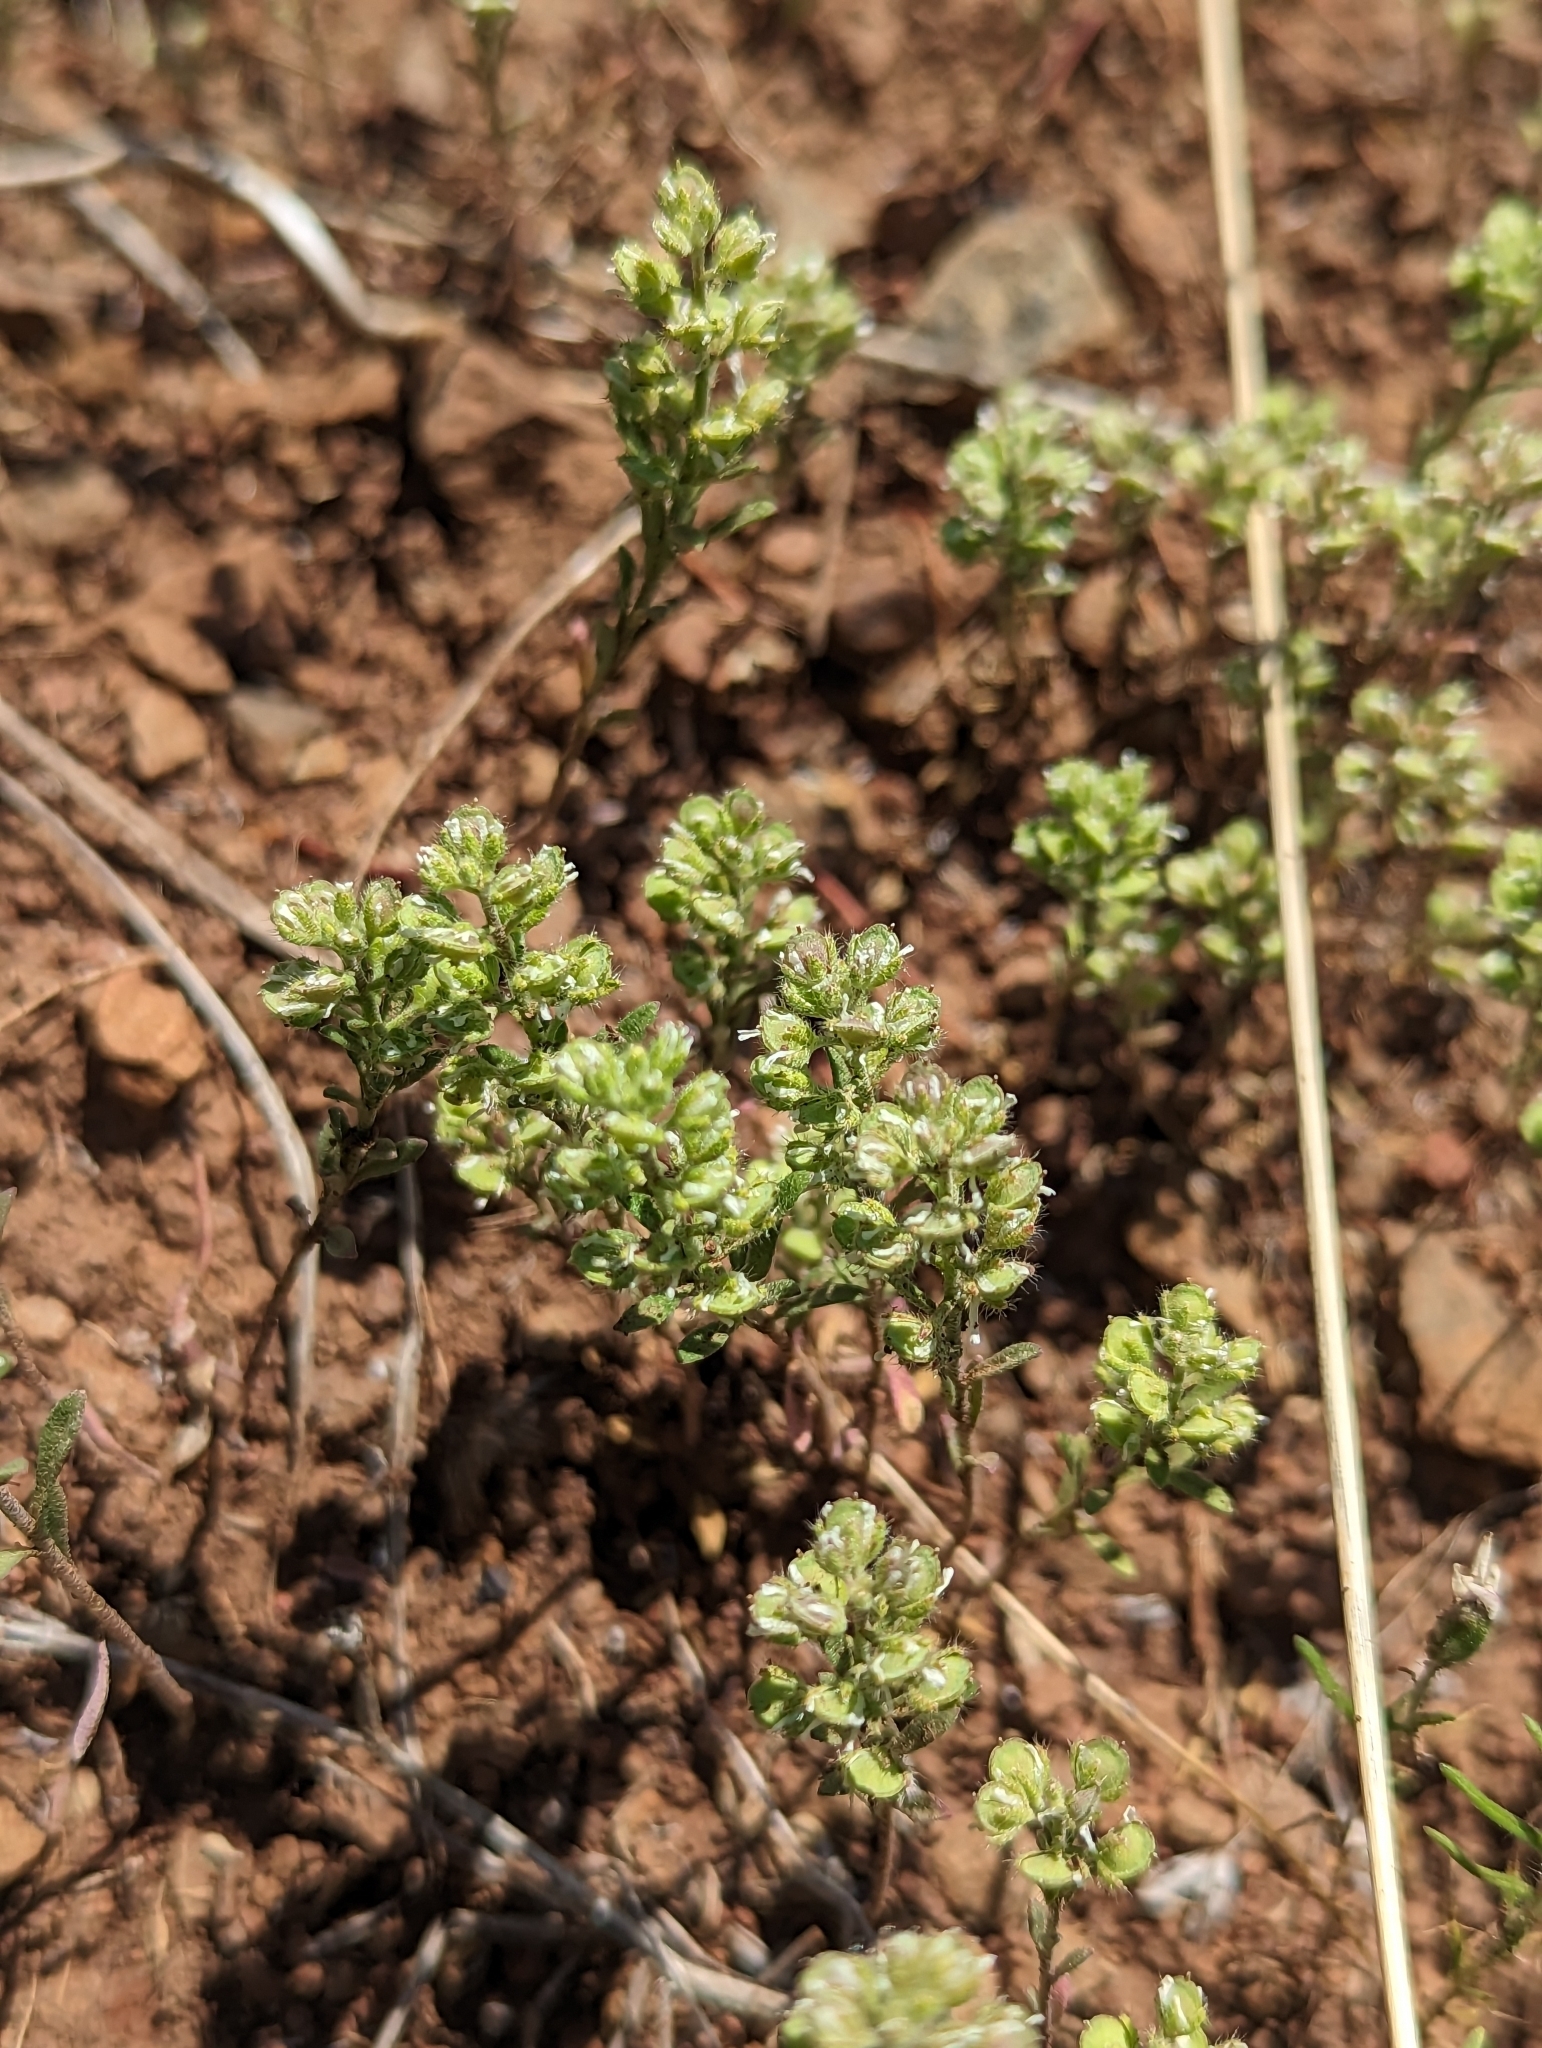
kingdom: Plantae
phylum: Tracheophyta
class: Magnoliopsida
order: Brassicales
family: Brassicaceae
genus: Alyssum
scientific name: Alyssum alyssoides
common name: Small alison
